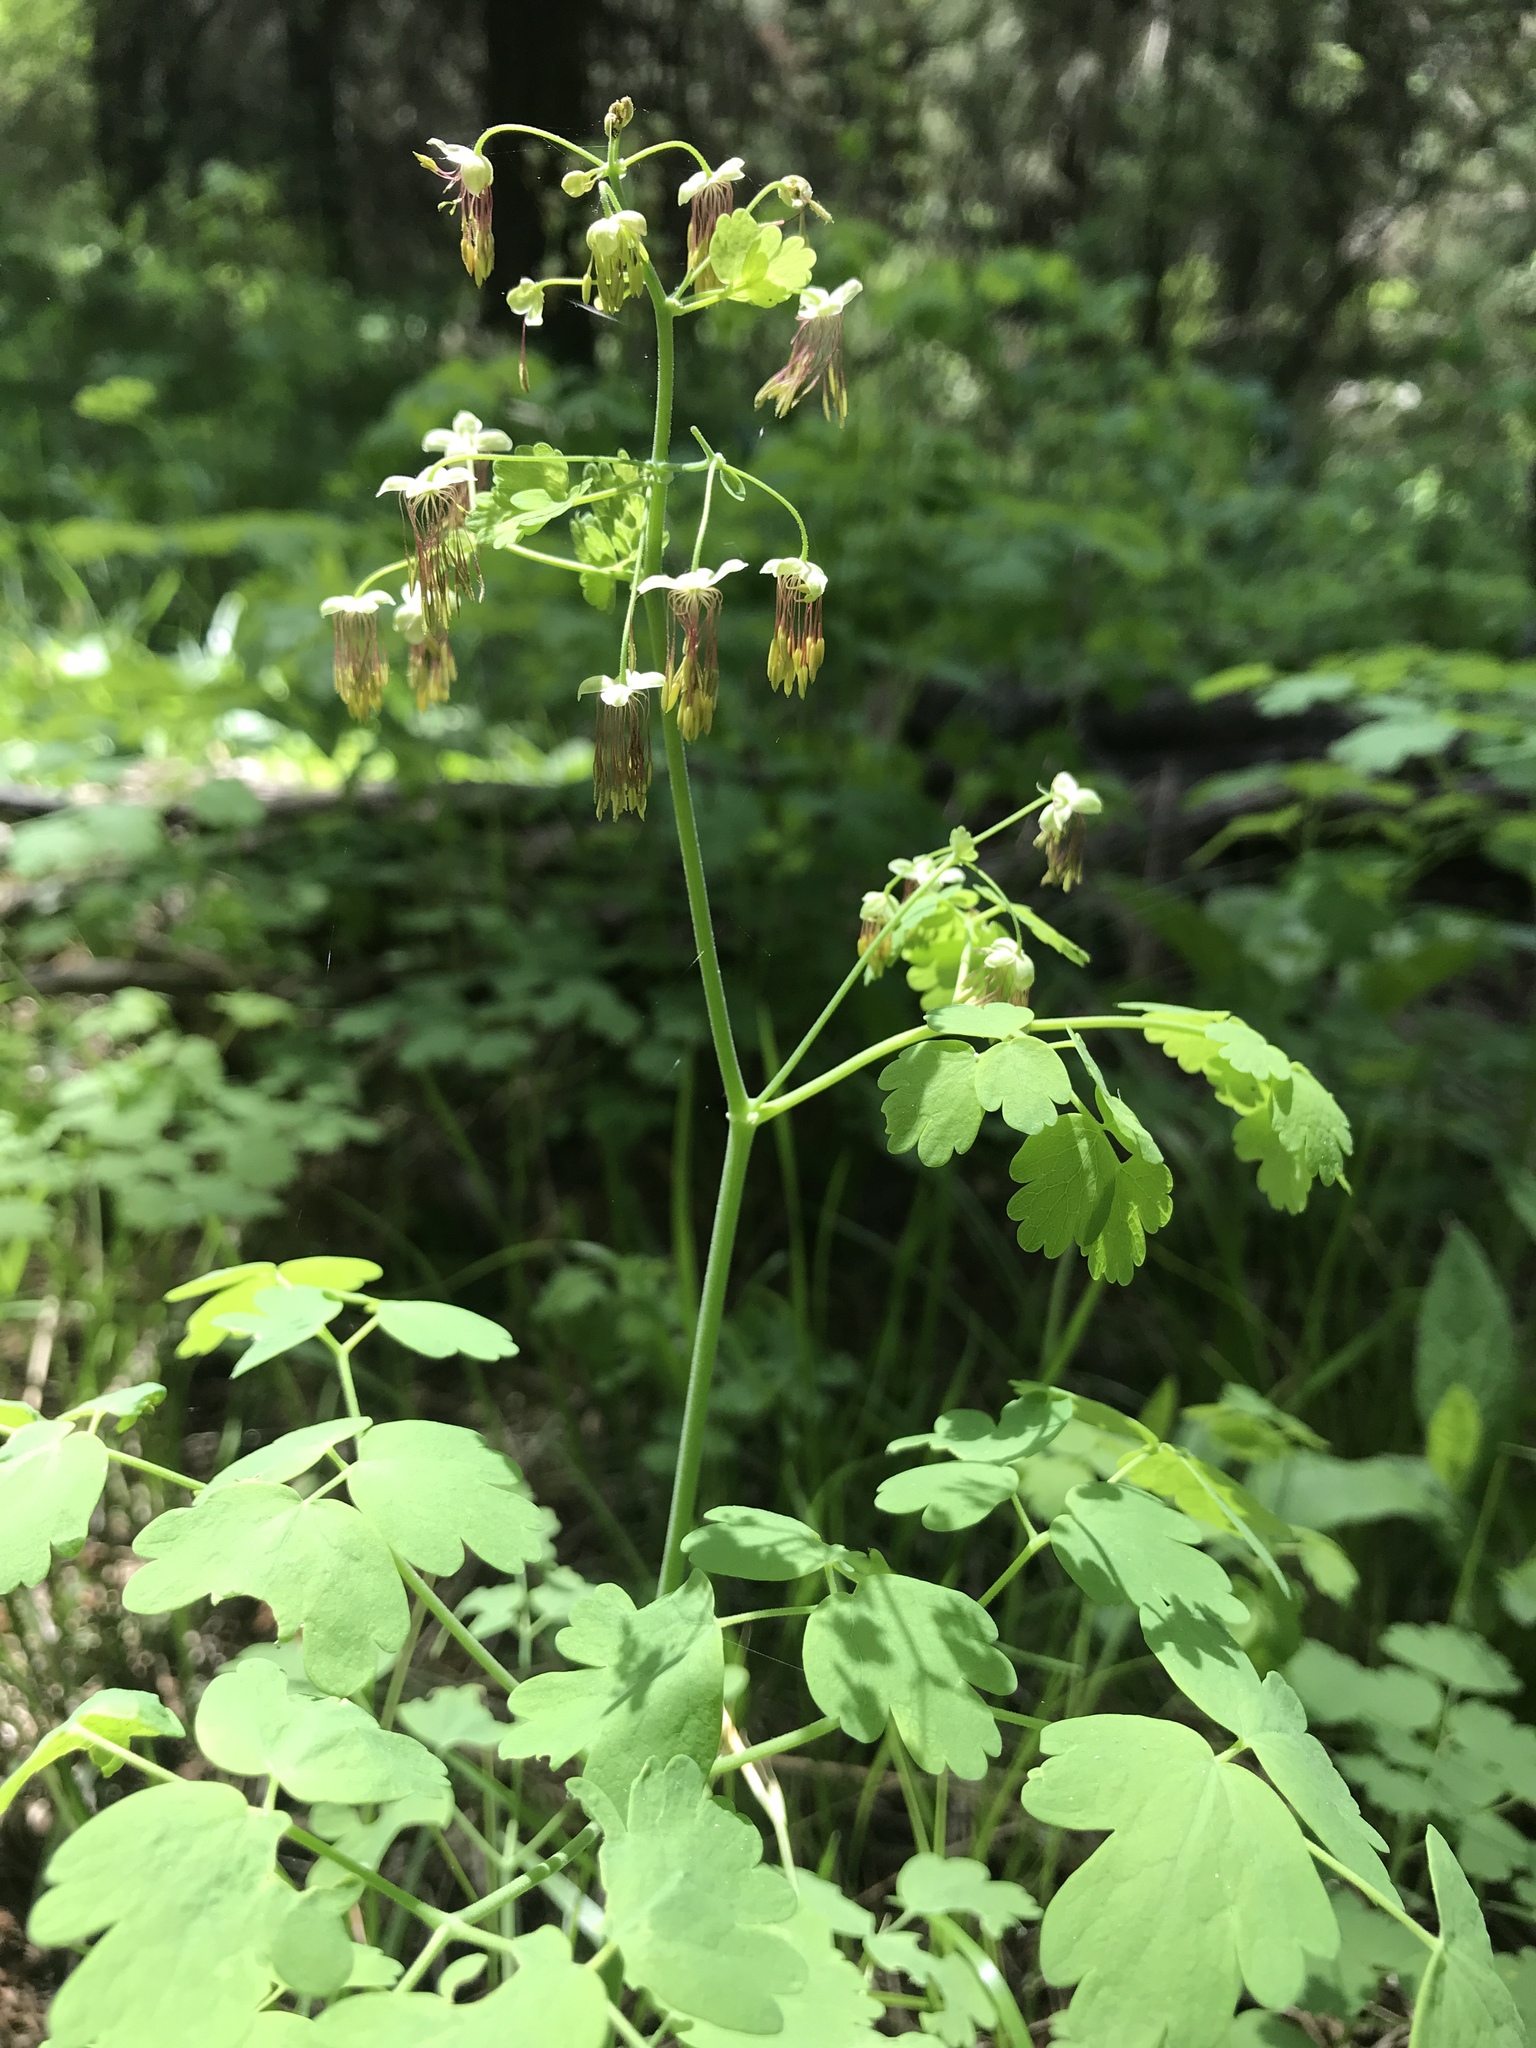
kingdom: Plantae
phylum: Tracheophyta
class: Magnoliopsida
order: Ranunculales
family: Ranunculaceae
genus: Thalictrum
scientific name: Thalictrum occidentale
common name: Western meadow-rue
